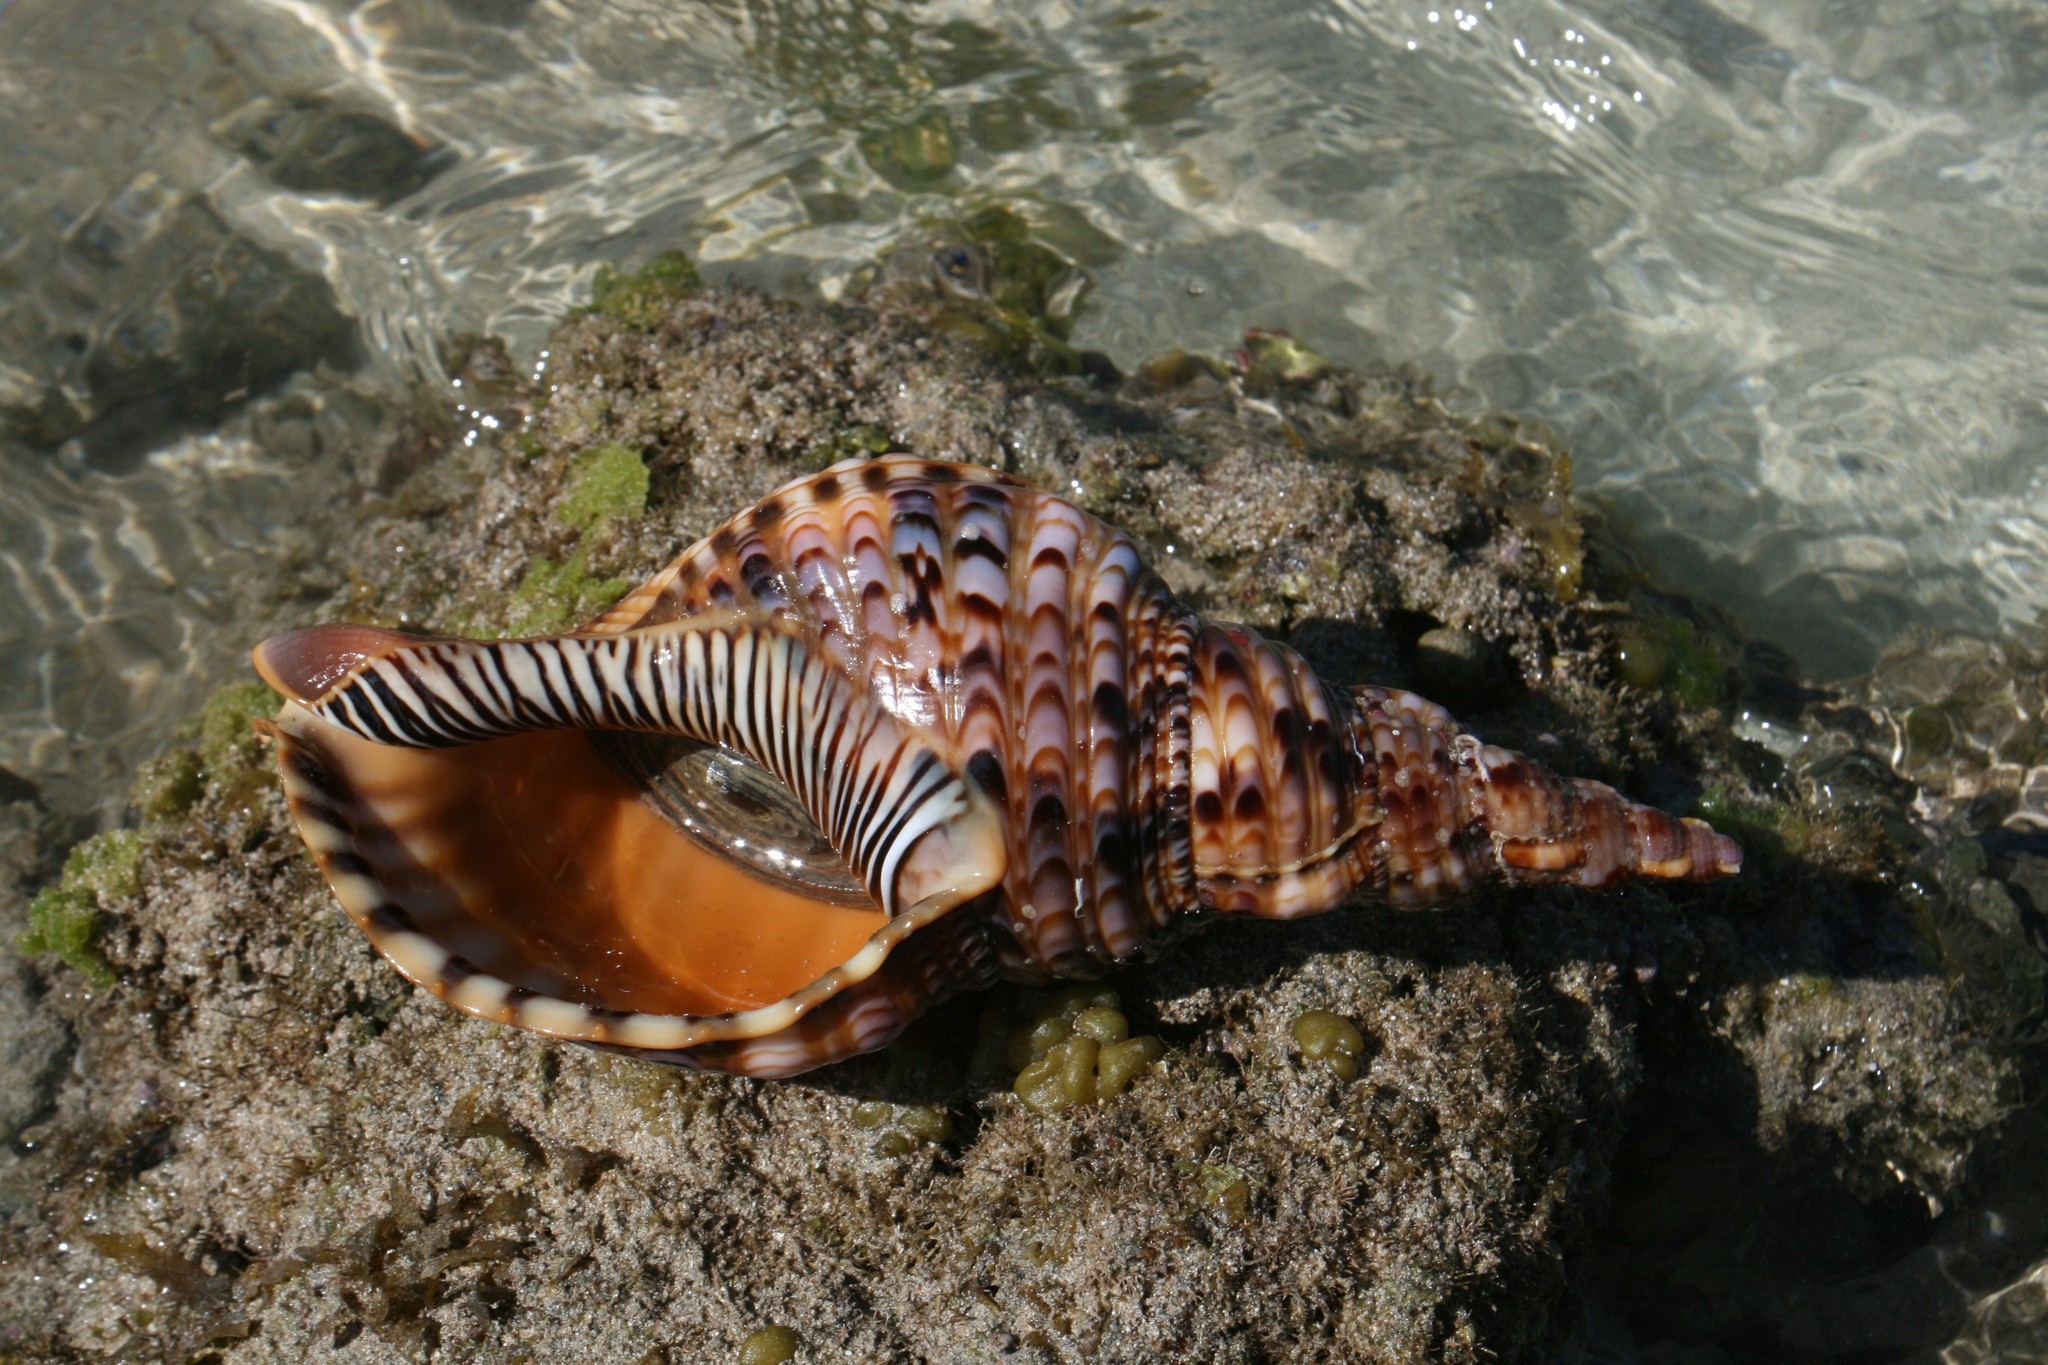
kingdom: Animalia
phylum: Mollusca
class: Gastropoda
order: Littorinimorpha
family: Charoniidae
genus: Charonia
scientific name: Charonia tritonis
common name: Pacific triton
